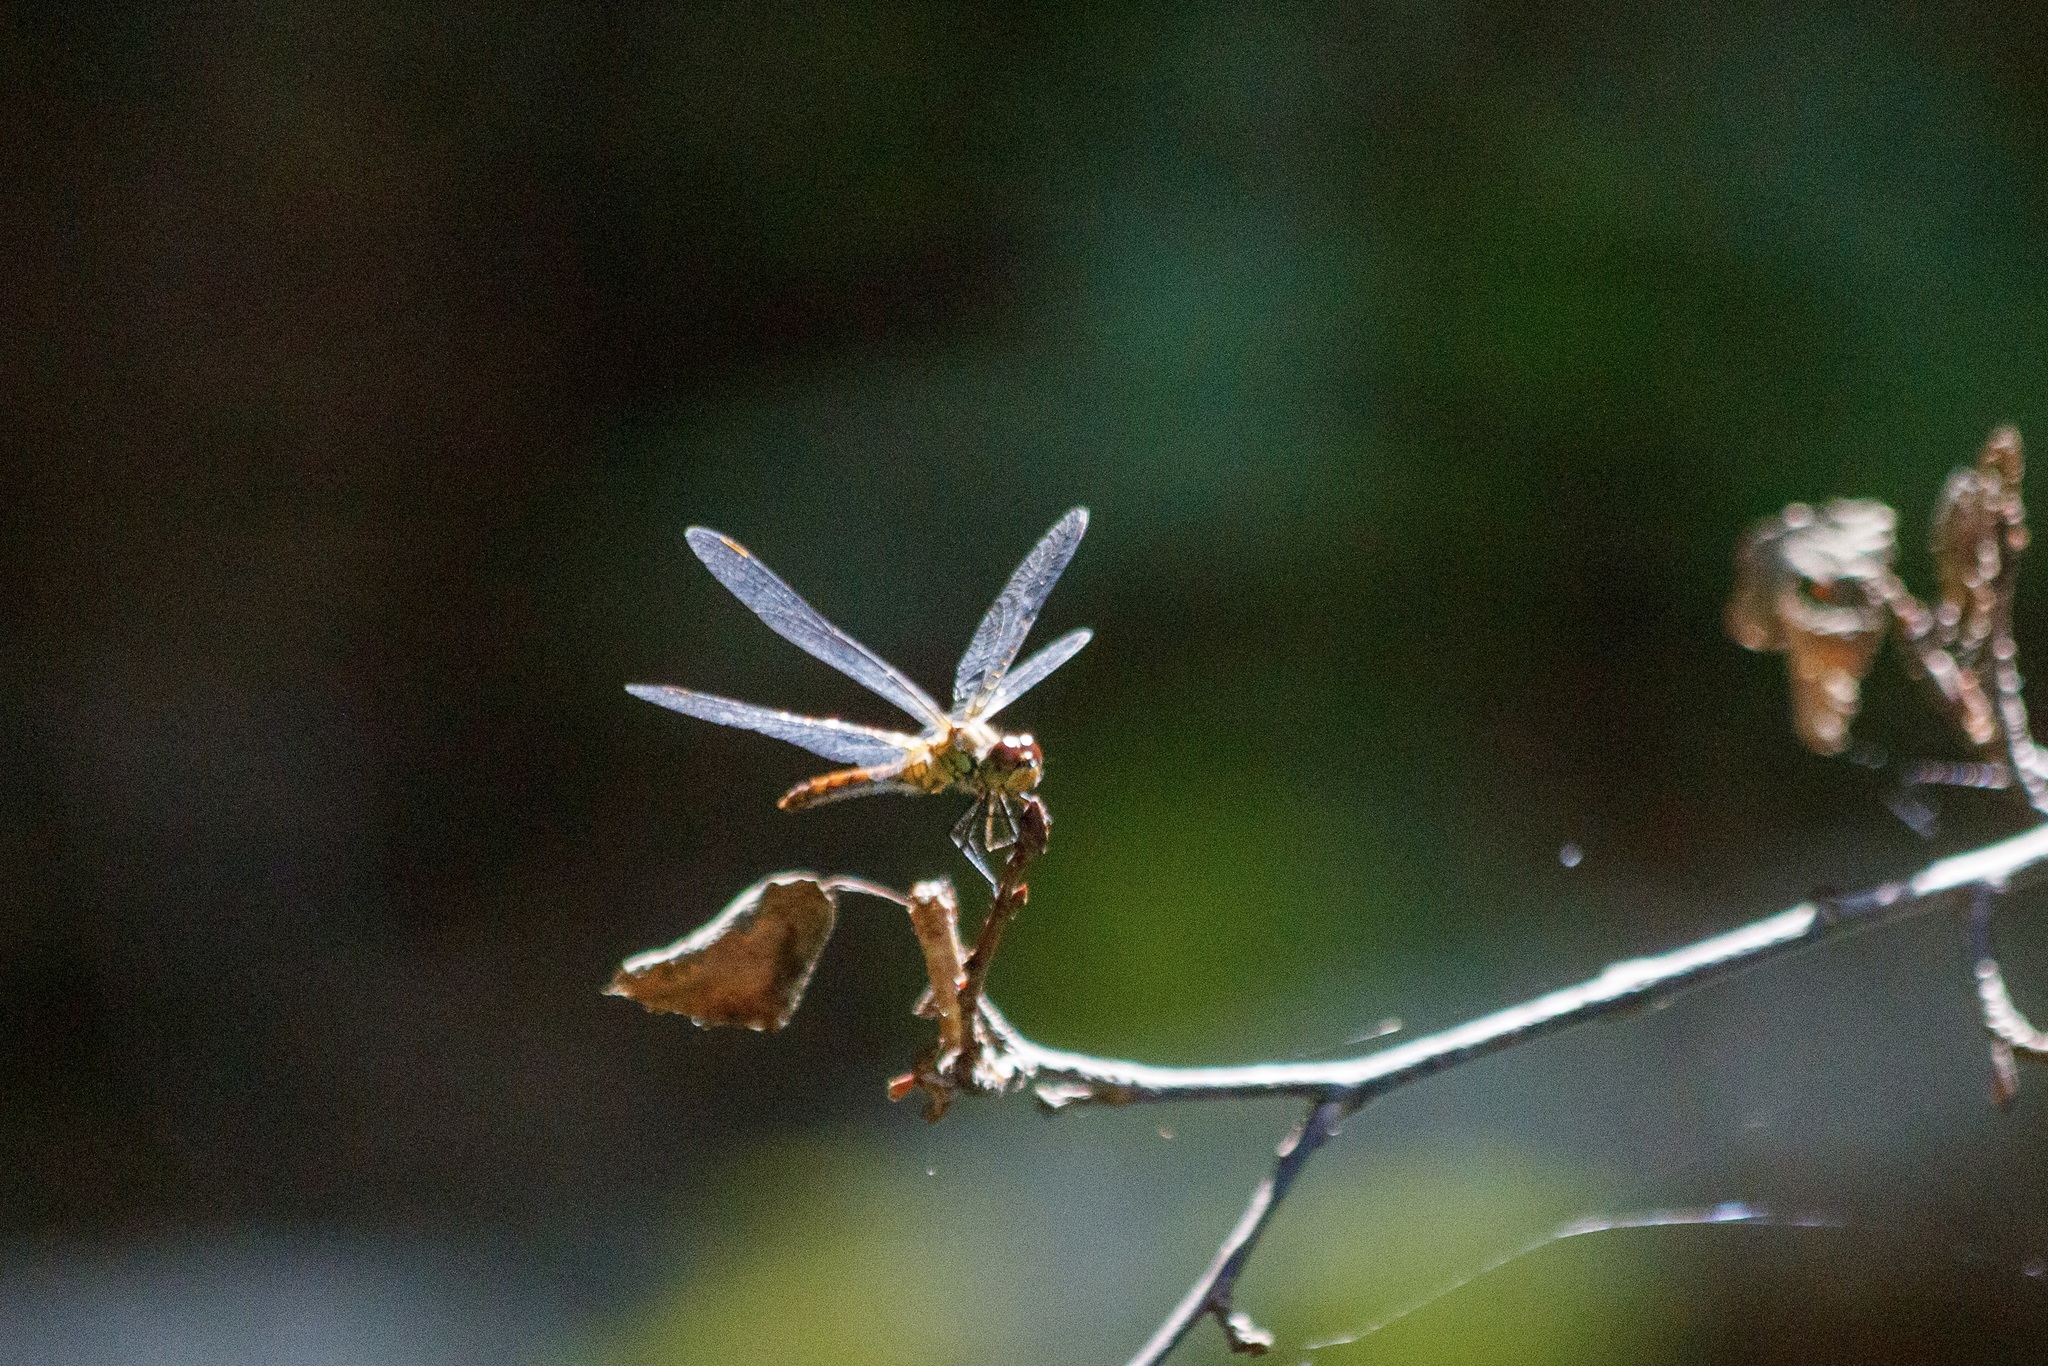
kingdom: Animalia
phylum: Arthropoda
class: Insecta
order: Odonata
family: Libellulidae
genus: Sympetrum
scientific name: Sympetrum sanguineum
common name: Ruddy darter
